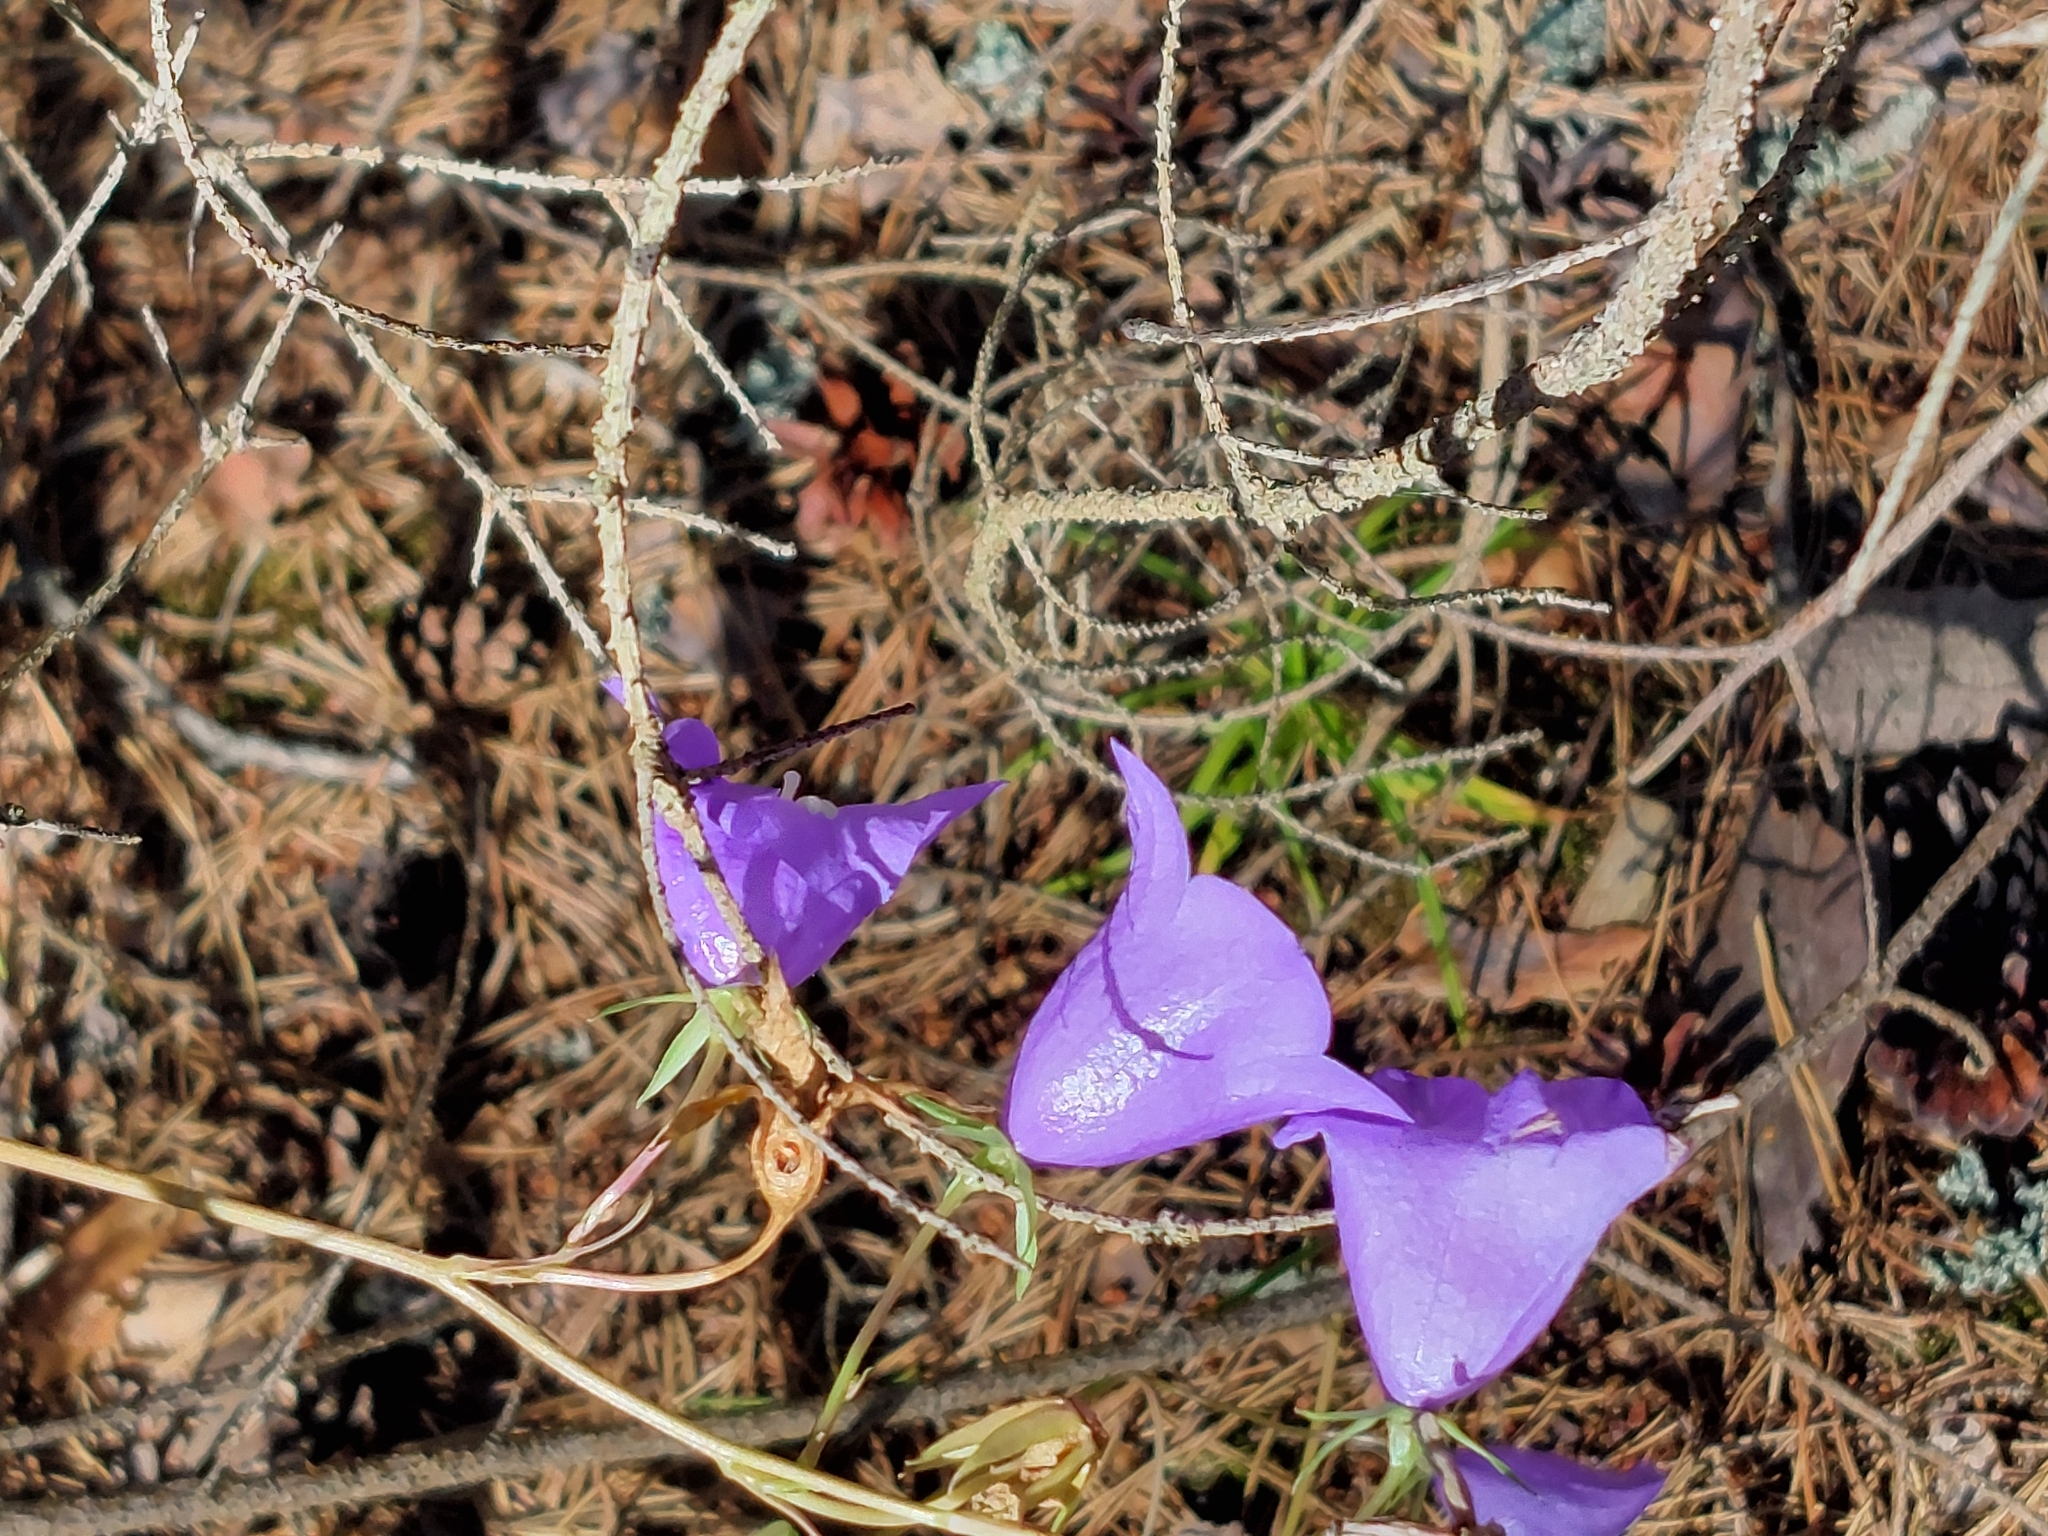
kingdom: Plantae
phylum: Tracheophyta
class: Magnoliopsida
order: Asterales
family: Campanulaceae
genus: Campanula
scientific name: Campanula persicifolia
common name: Peach-leaved bellflower
